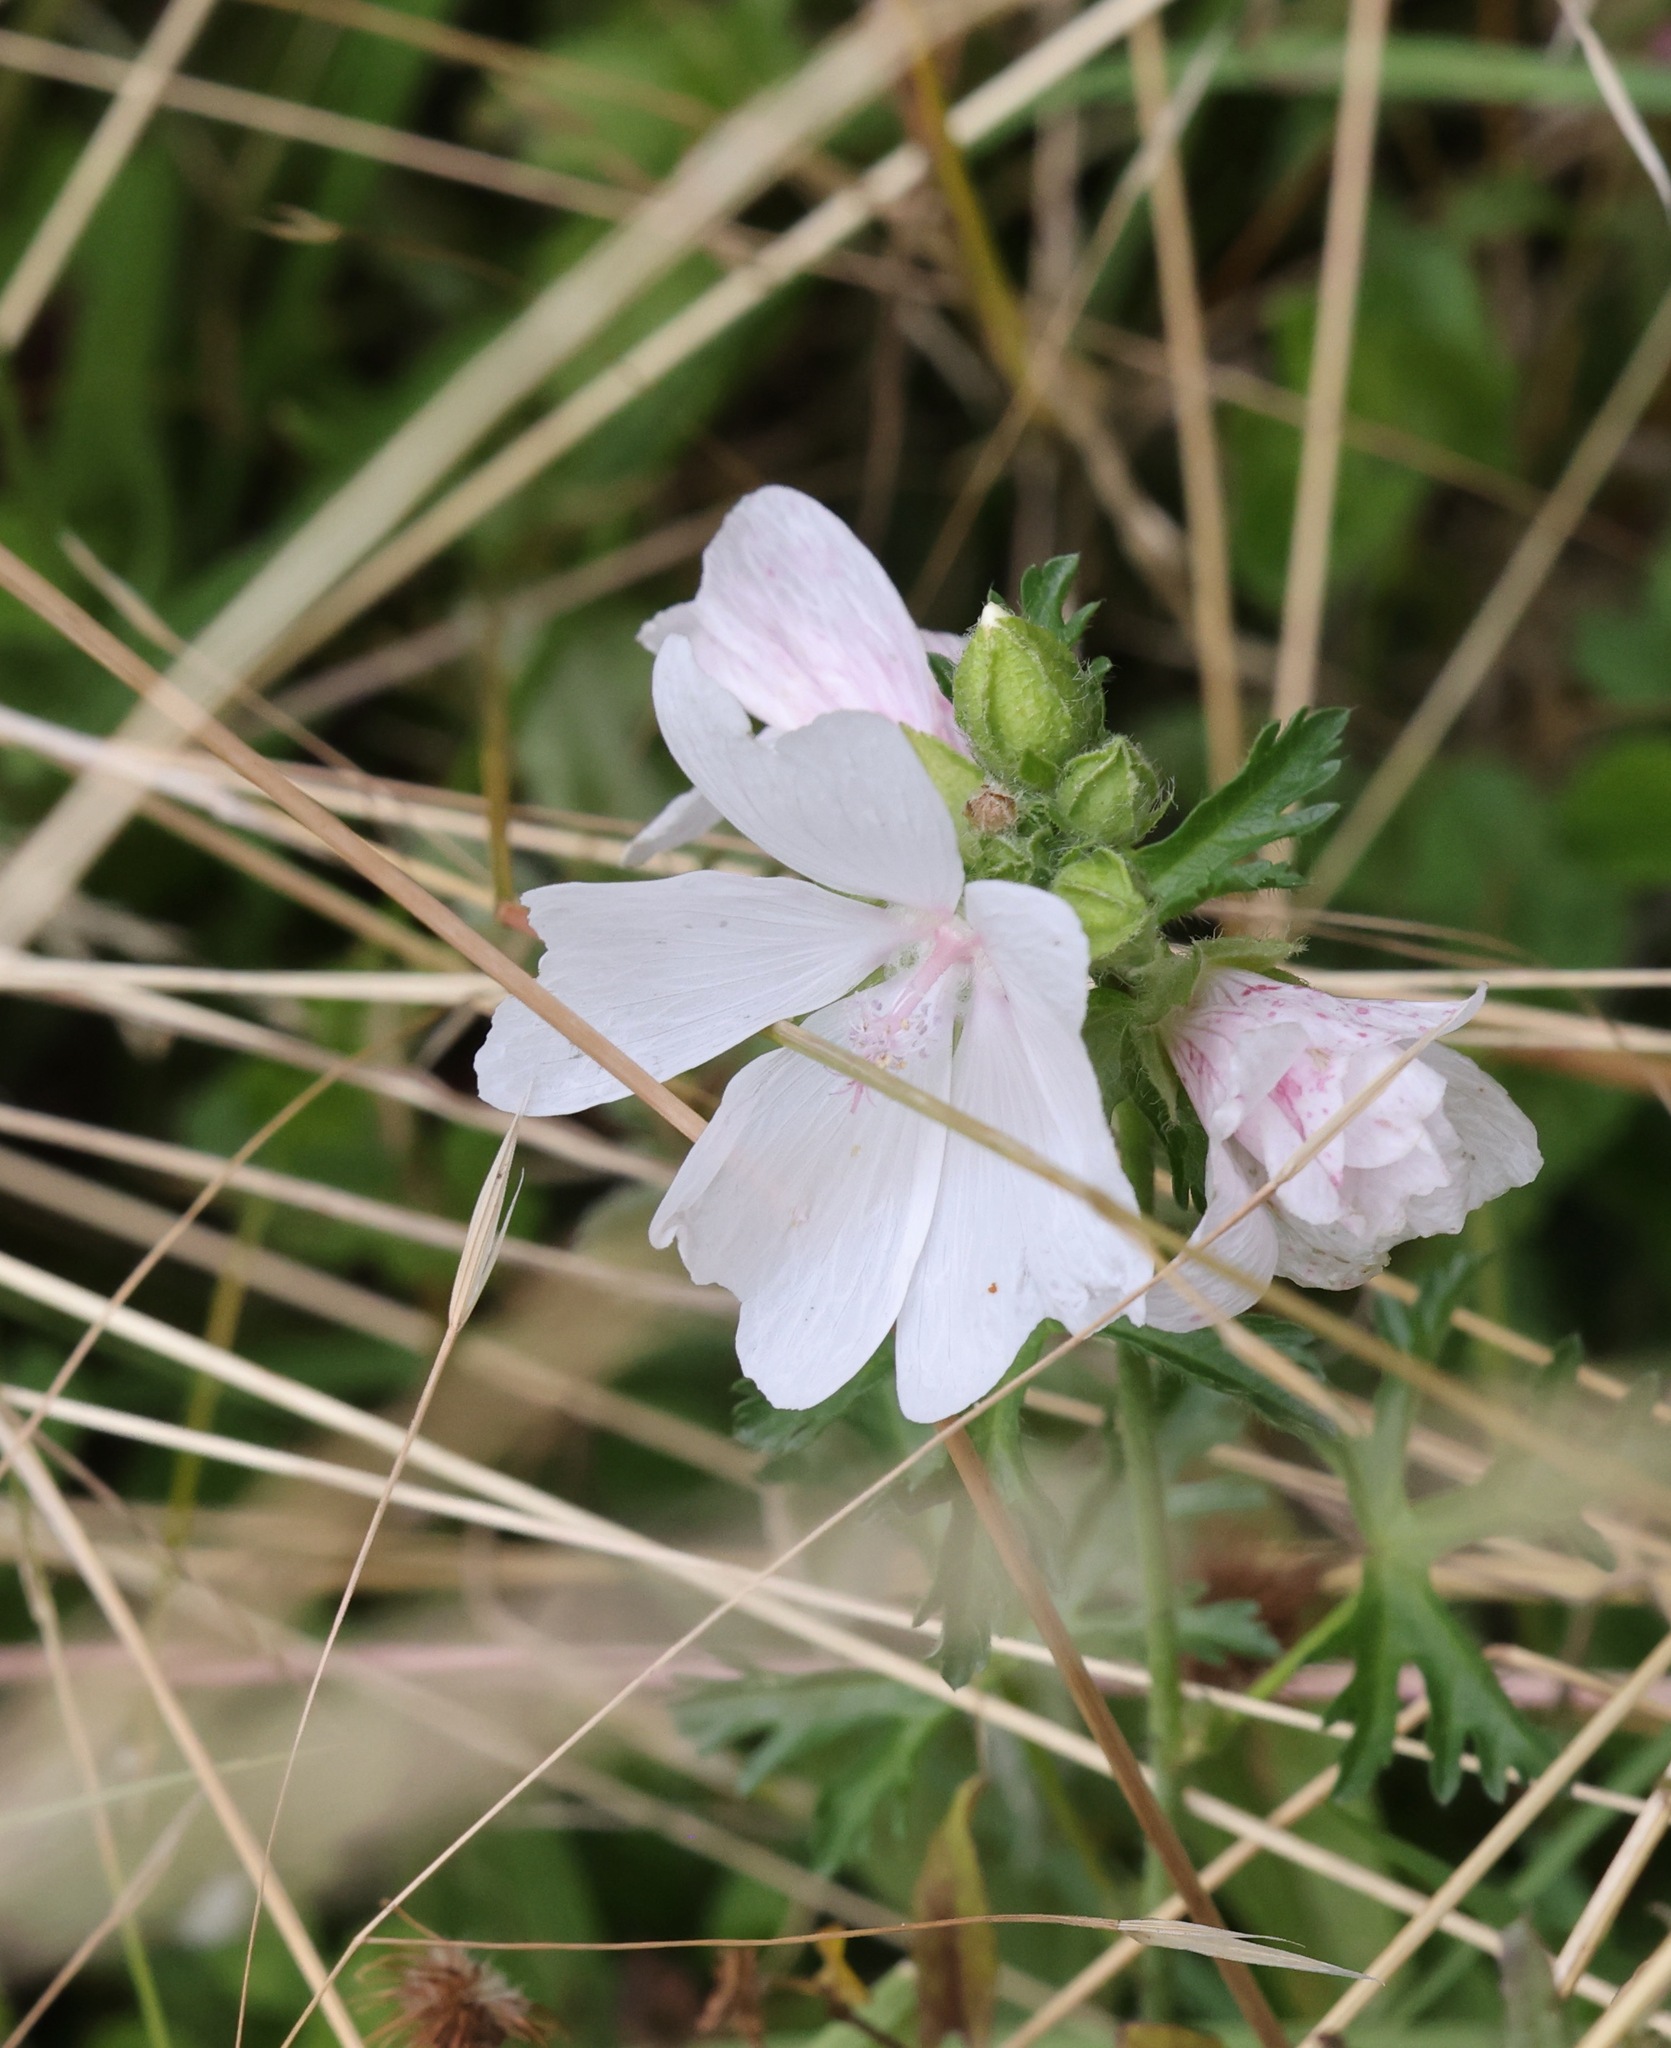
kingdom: Plantae
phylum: Tracheophyta
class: Magnoliopsida
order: Malvales
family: Malvaceae
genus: Malva
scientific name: Malva moschata
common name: Musk mallow
